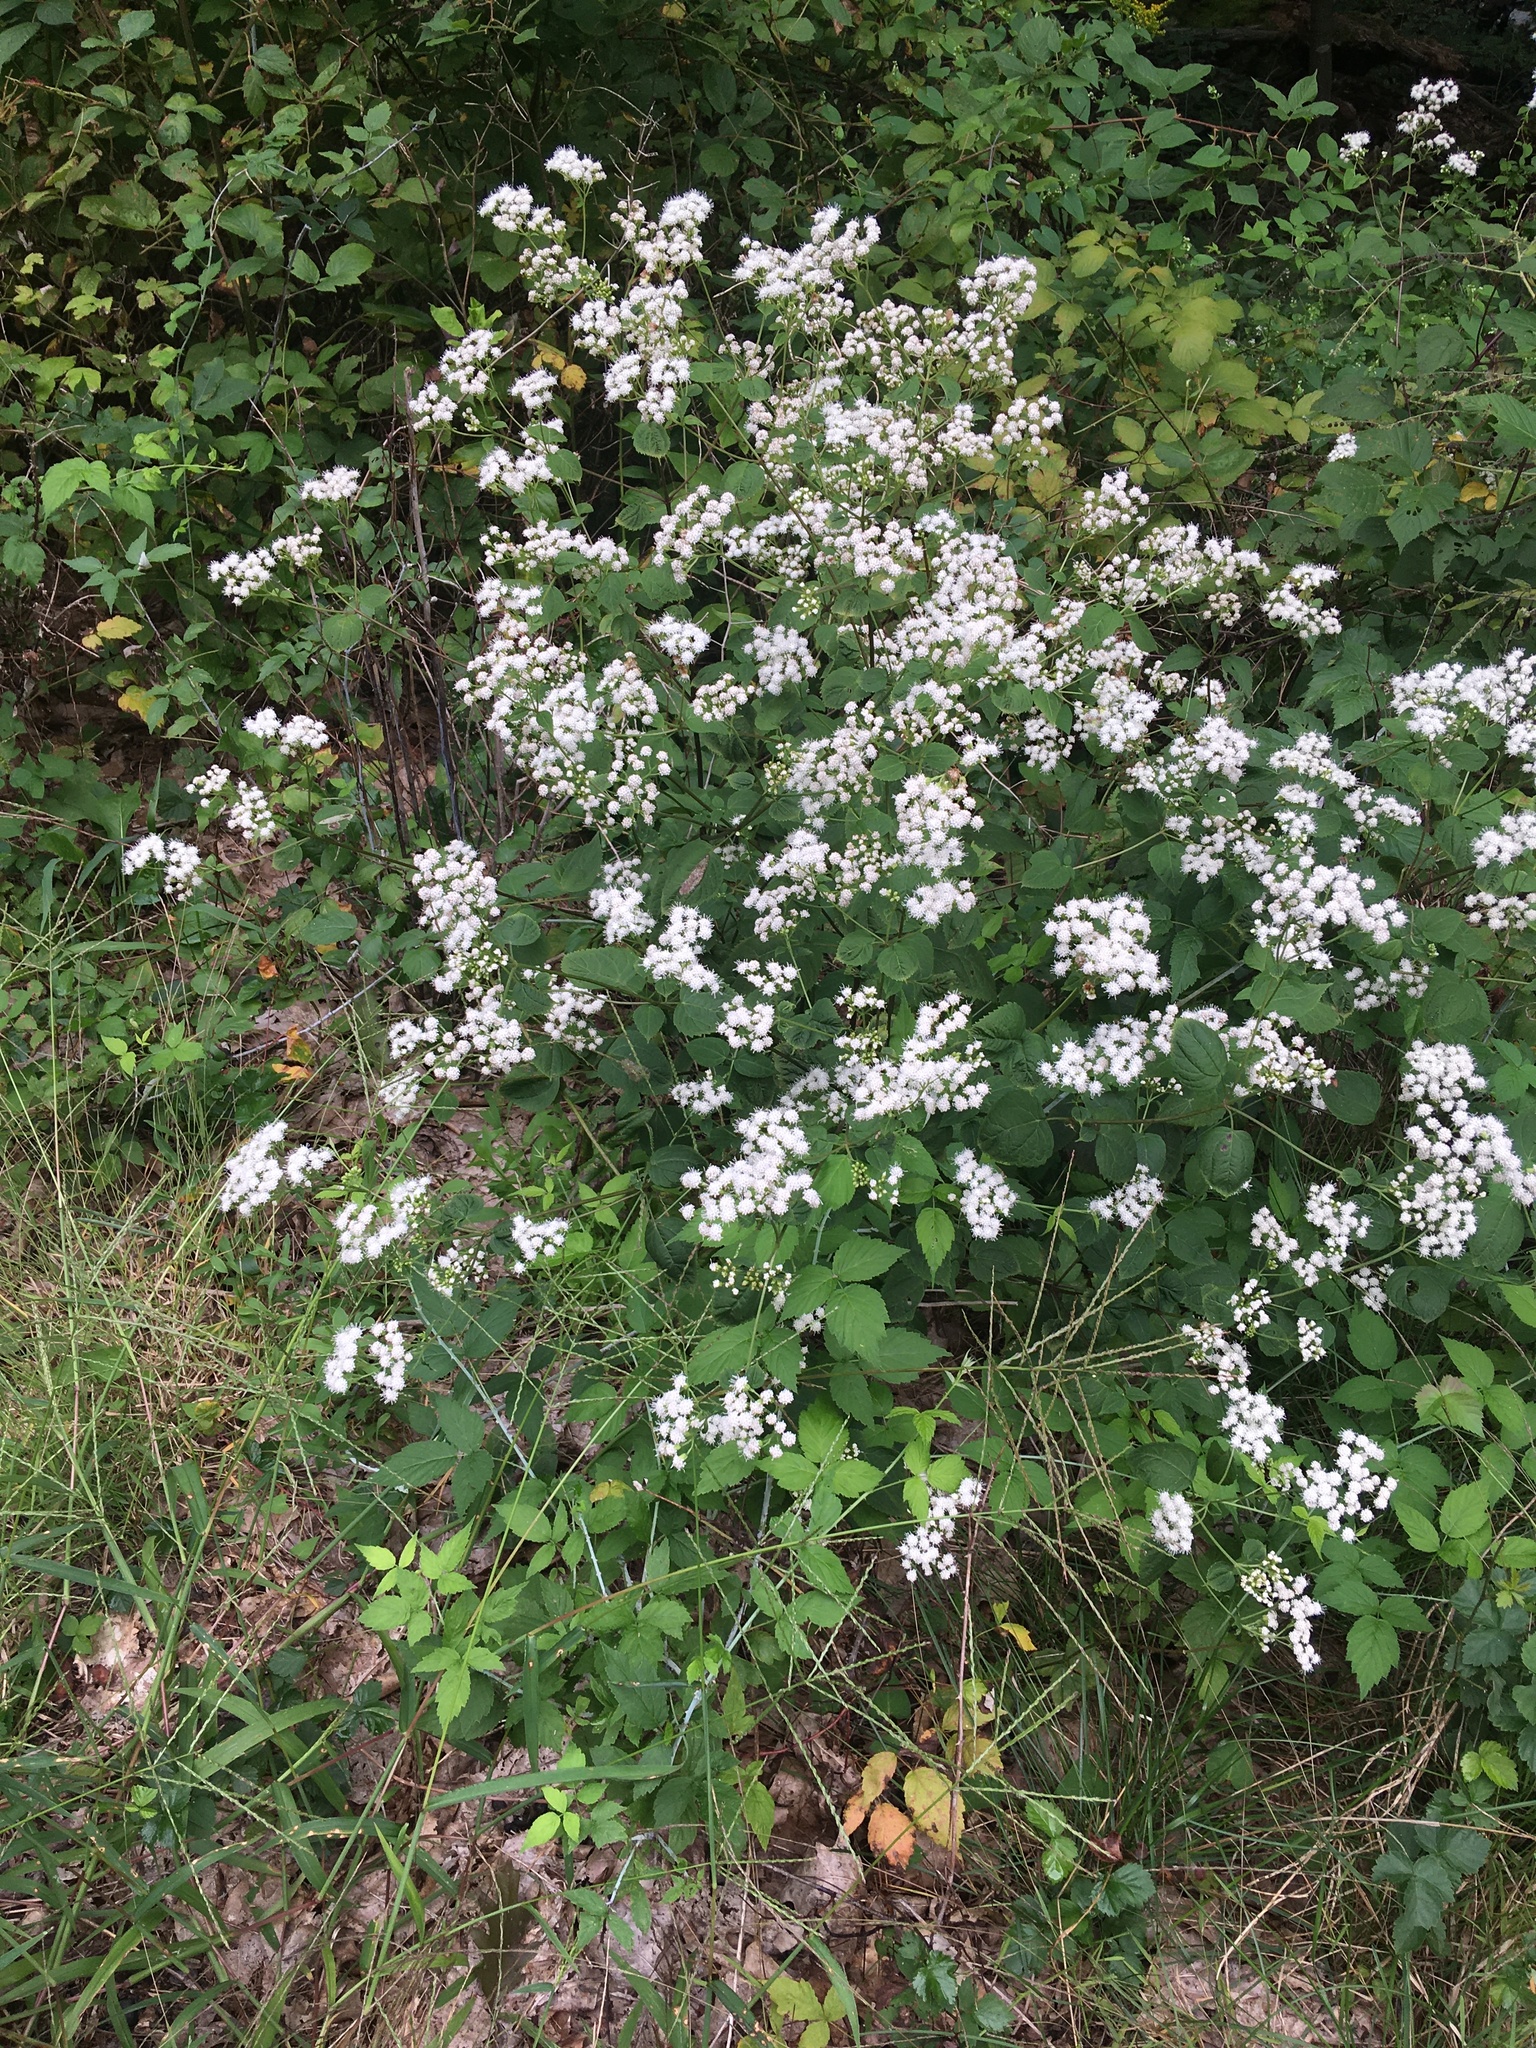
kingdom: Plantae
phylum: Tracheophyta
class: Magnoliopsida
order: Asterales
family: Asteraceae
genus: Ageratina
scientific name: Ageratina altissima
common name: White snakeroot
